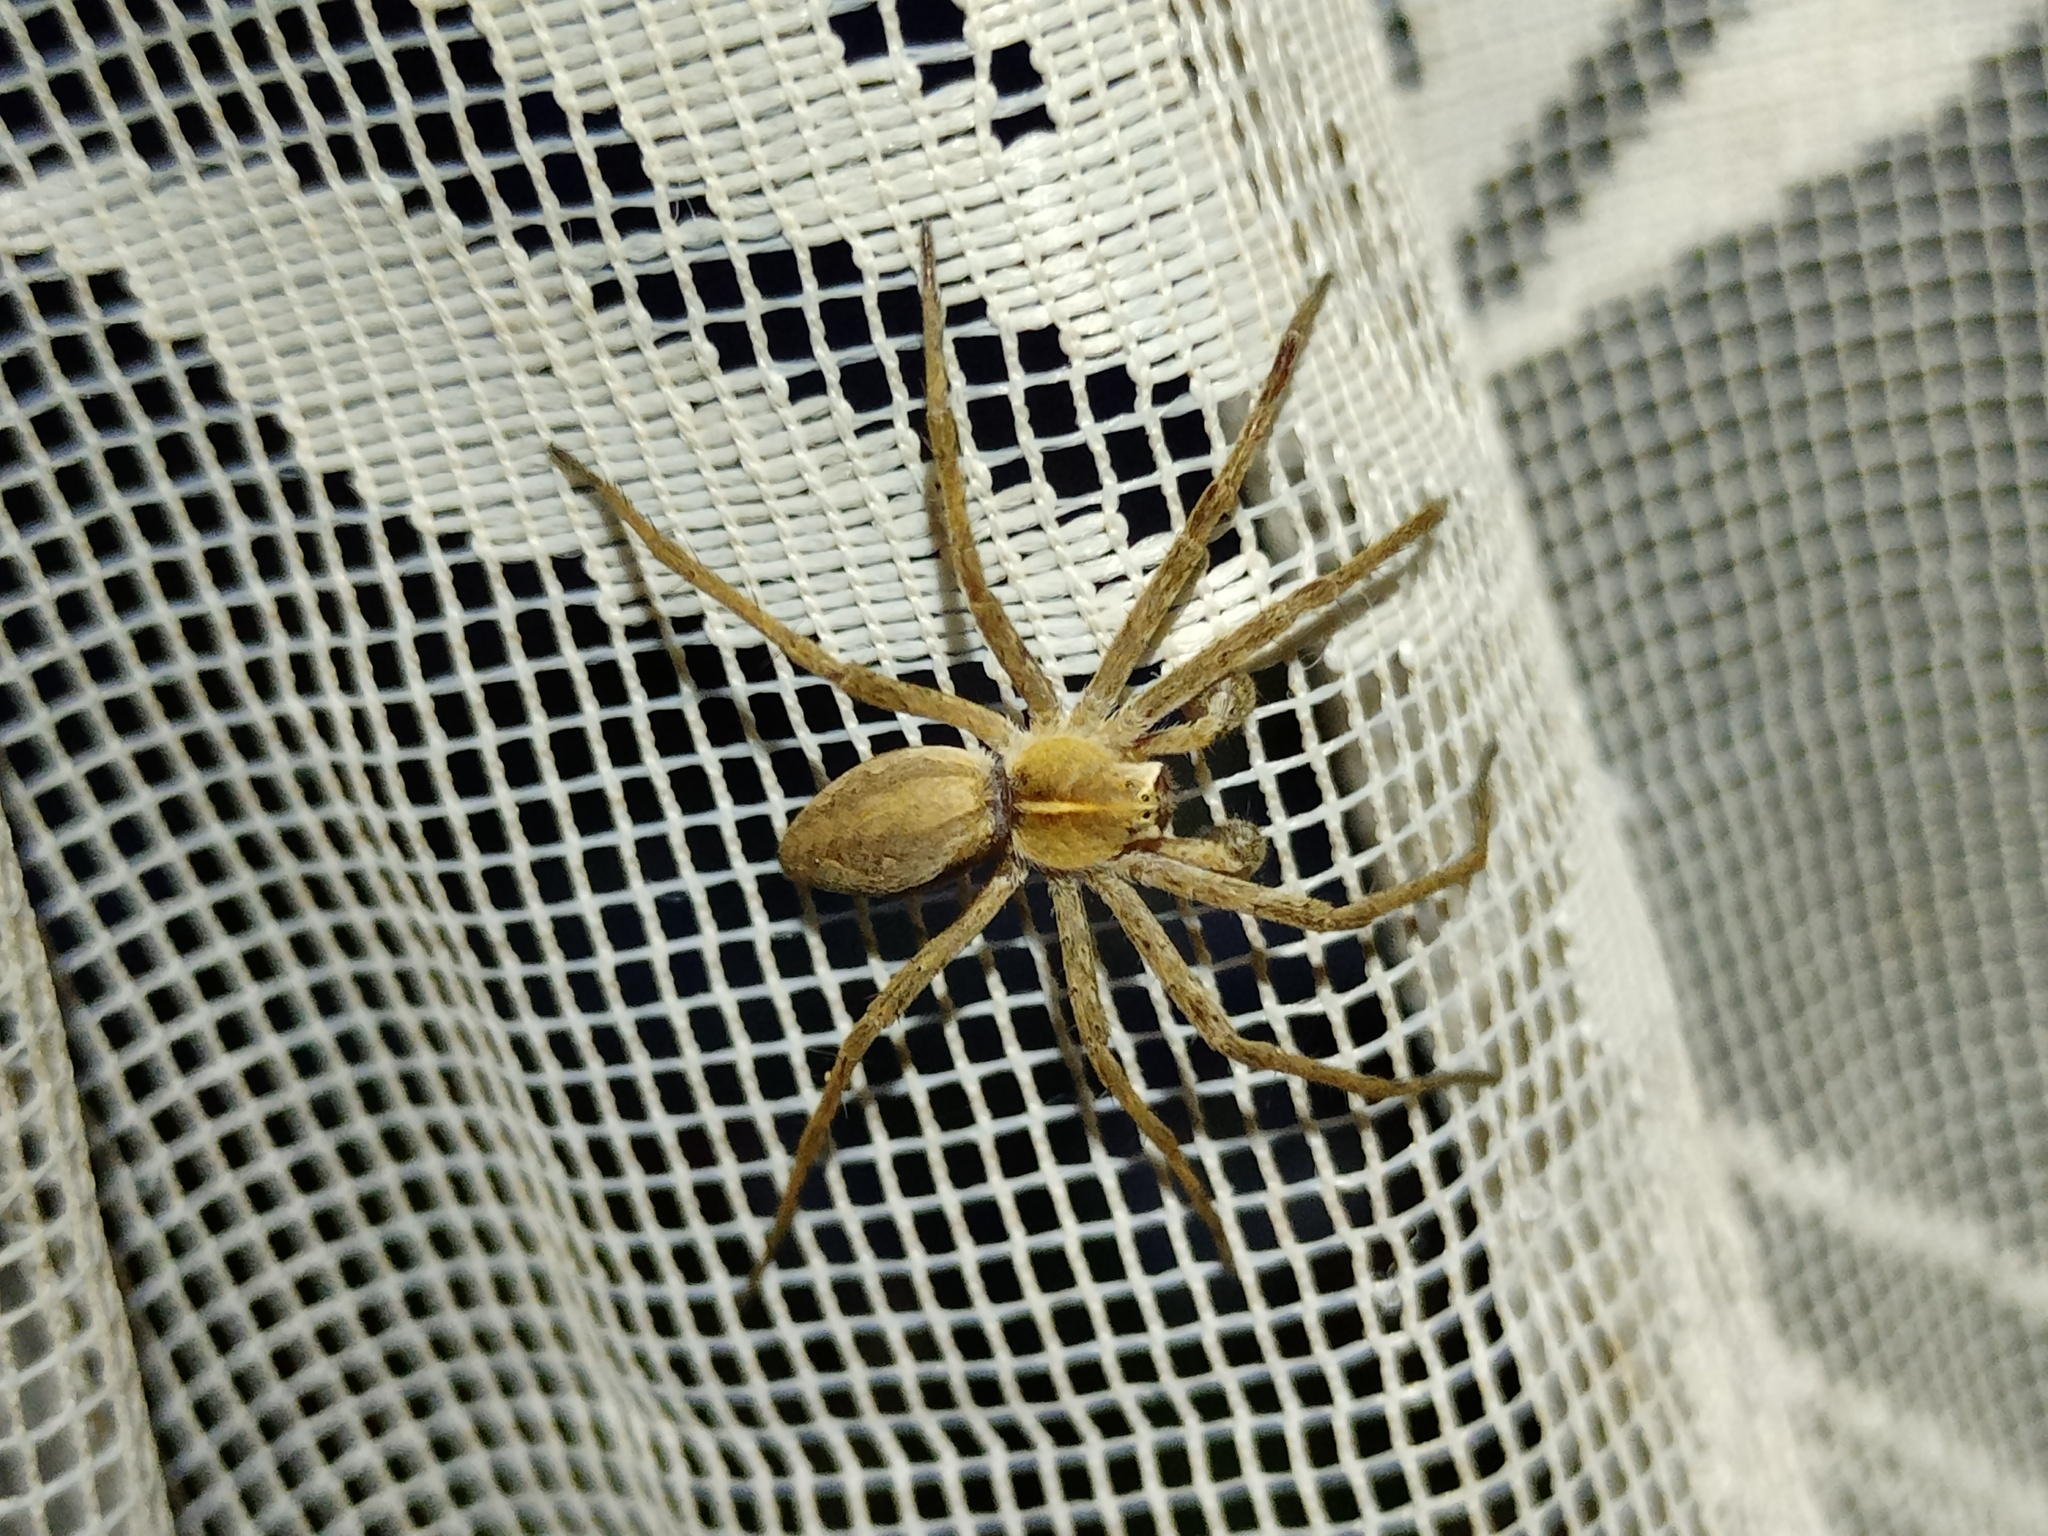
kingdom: Animalia
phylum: Arthropoda
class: Arachnida
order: Araneae
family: Pisauridae
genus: Pisaura
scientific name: Pisaura mirabilis
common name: Tent spider
